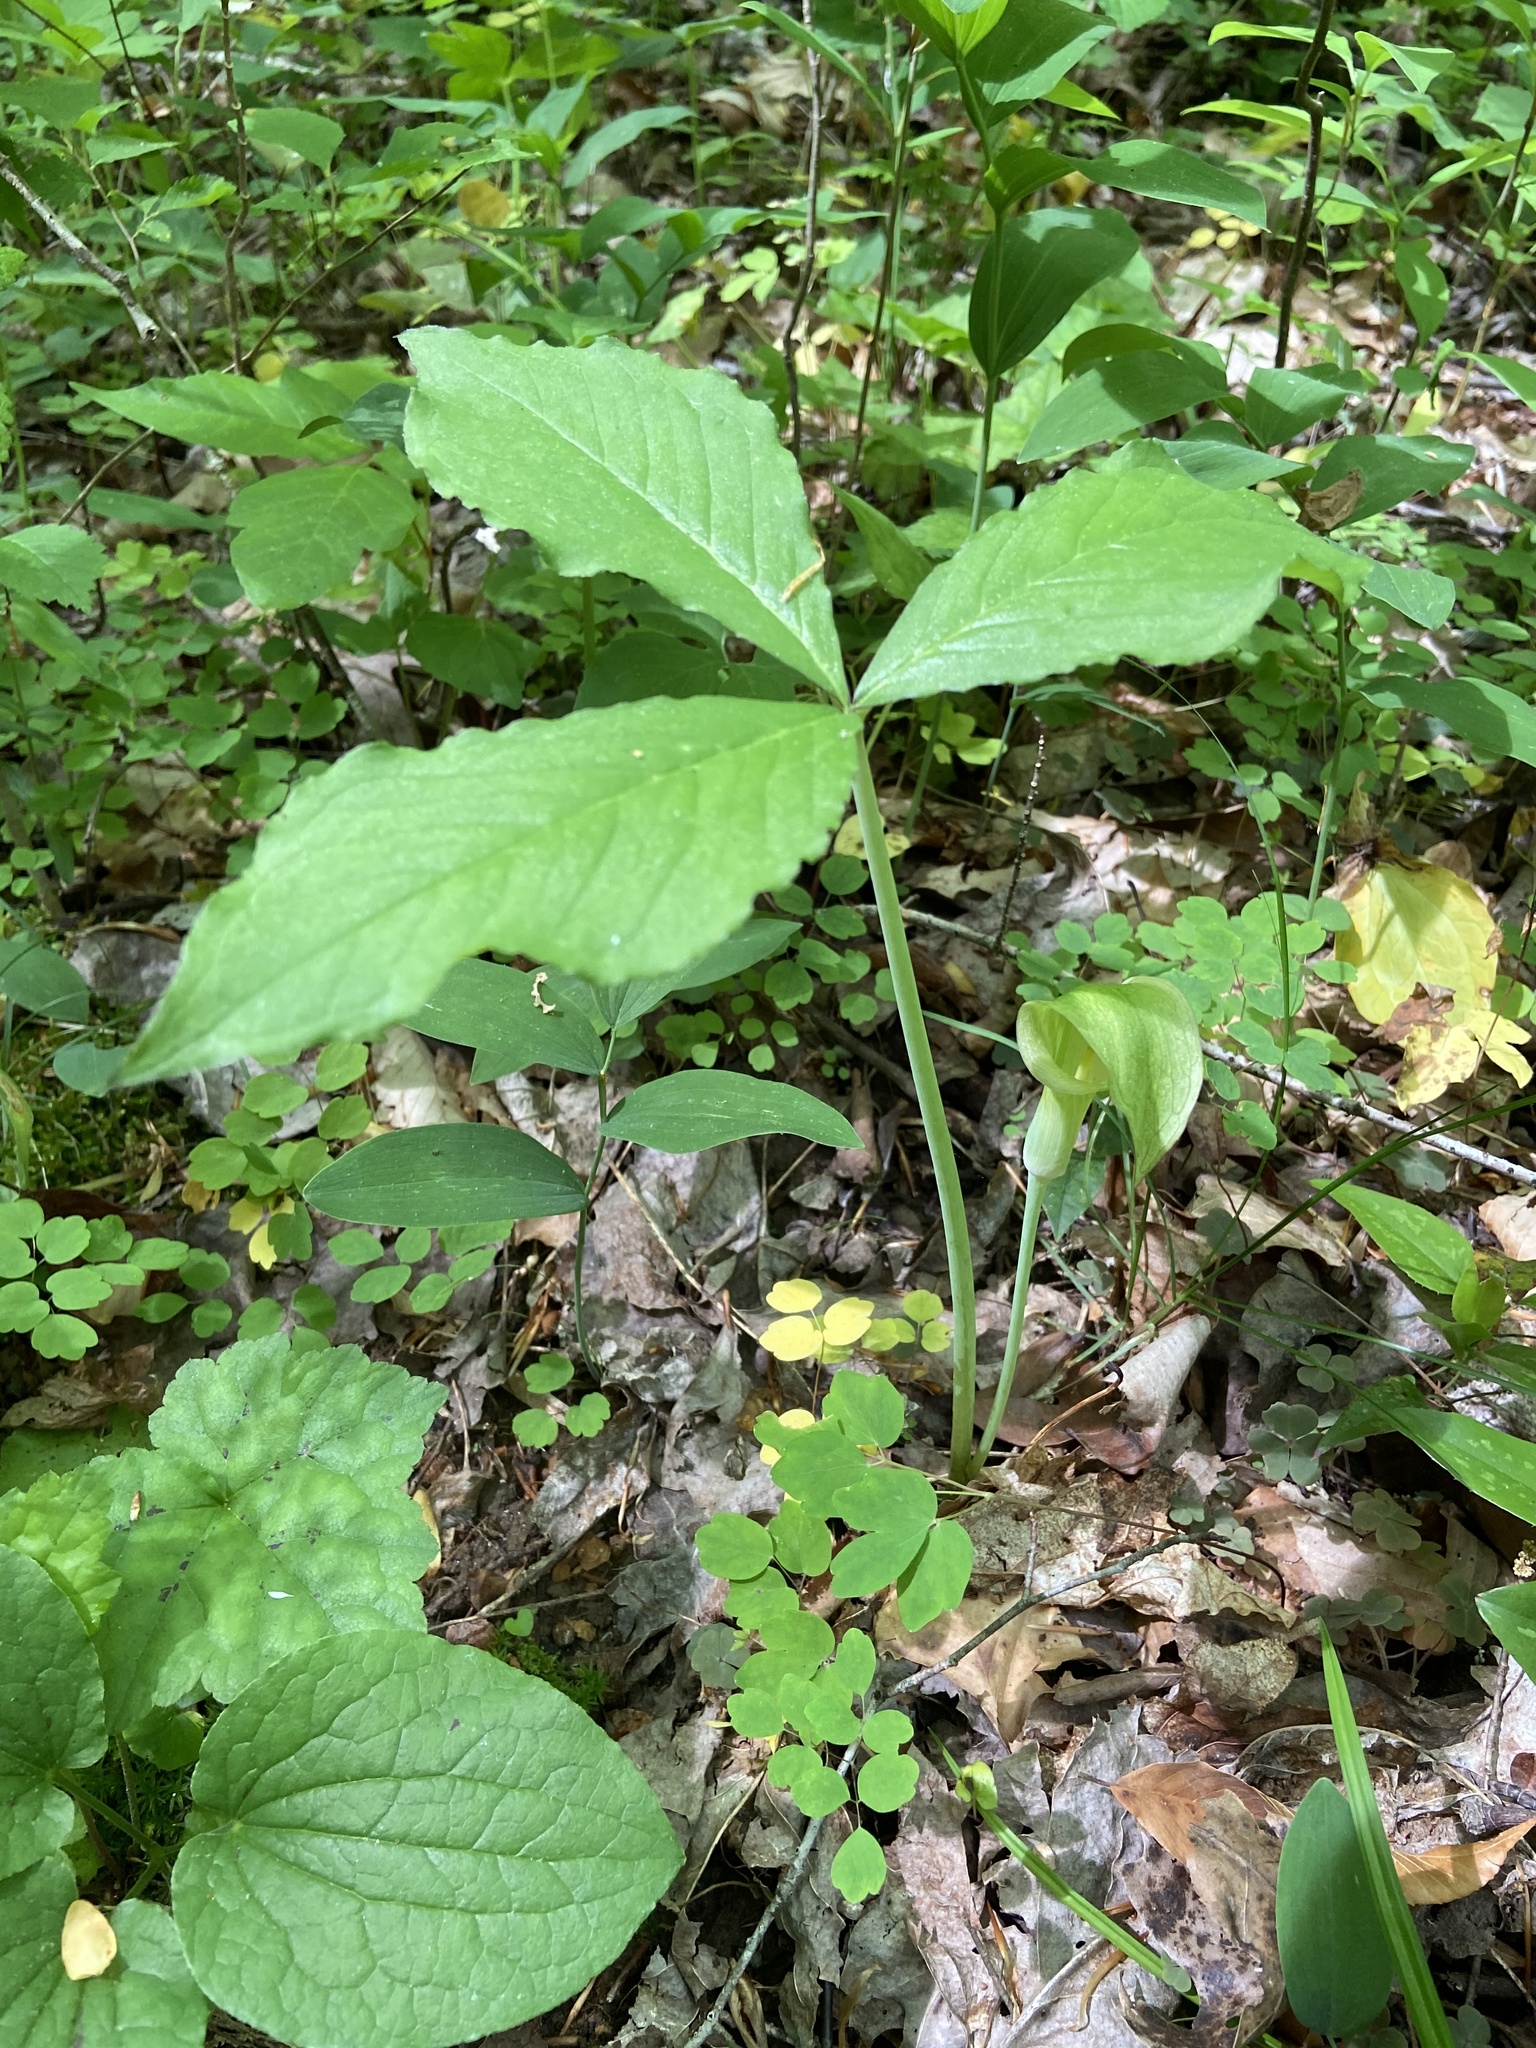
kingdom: Plantae
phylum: Tracheophyta
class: Liliopsida
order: Alismatales
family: Araceae
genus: Arisaema
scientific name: Arisaema triphyllum
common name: Jack-in-the-pulpit
